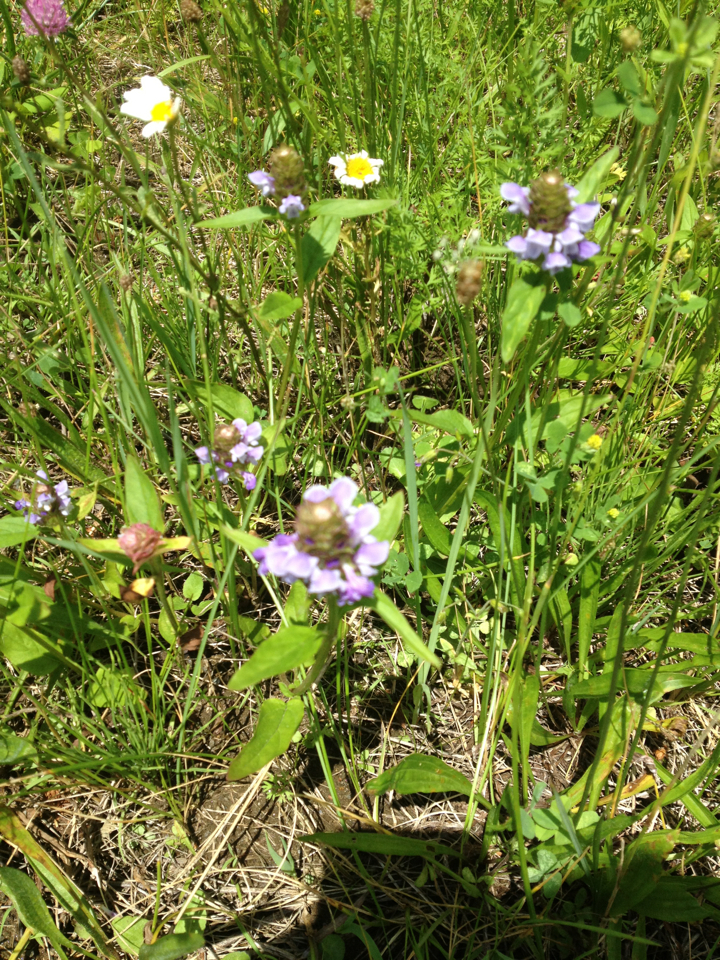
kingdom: Plantae
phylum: Tracheophyta
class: Magnoliopsida
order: Lamiales
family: Lamiaceae
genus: Prunella
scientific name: Prunella vulgaris
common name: Heal-all
